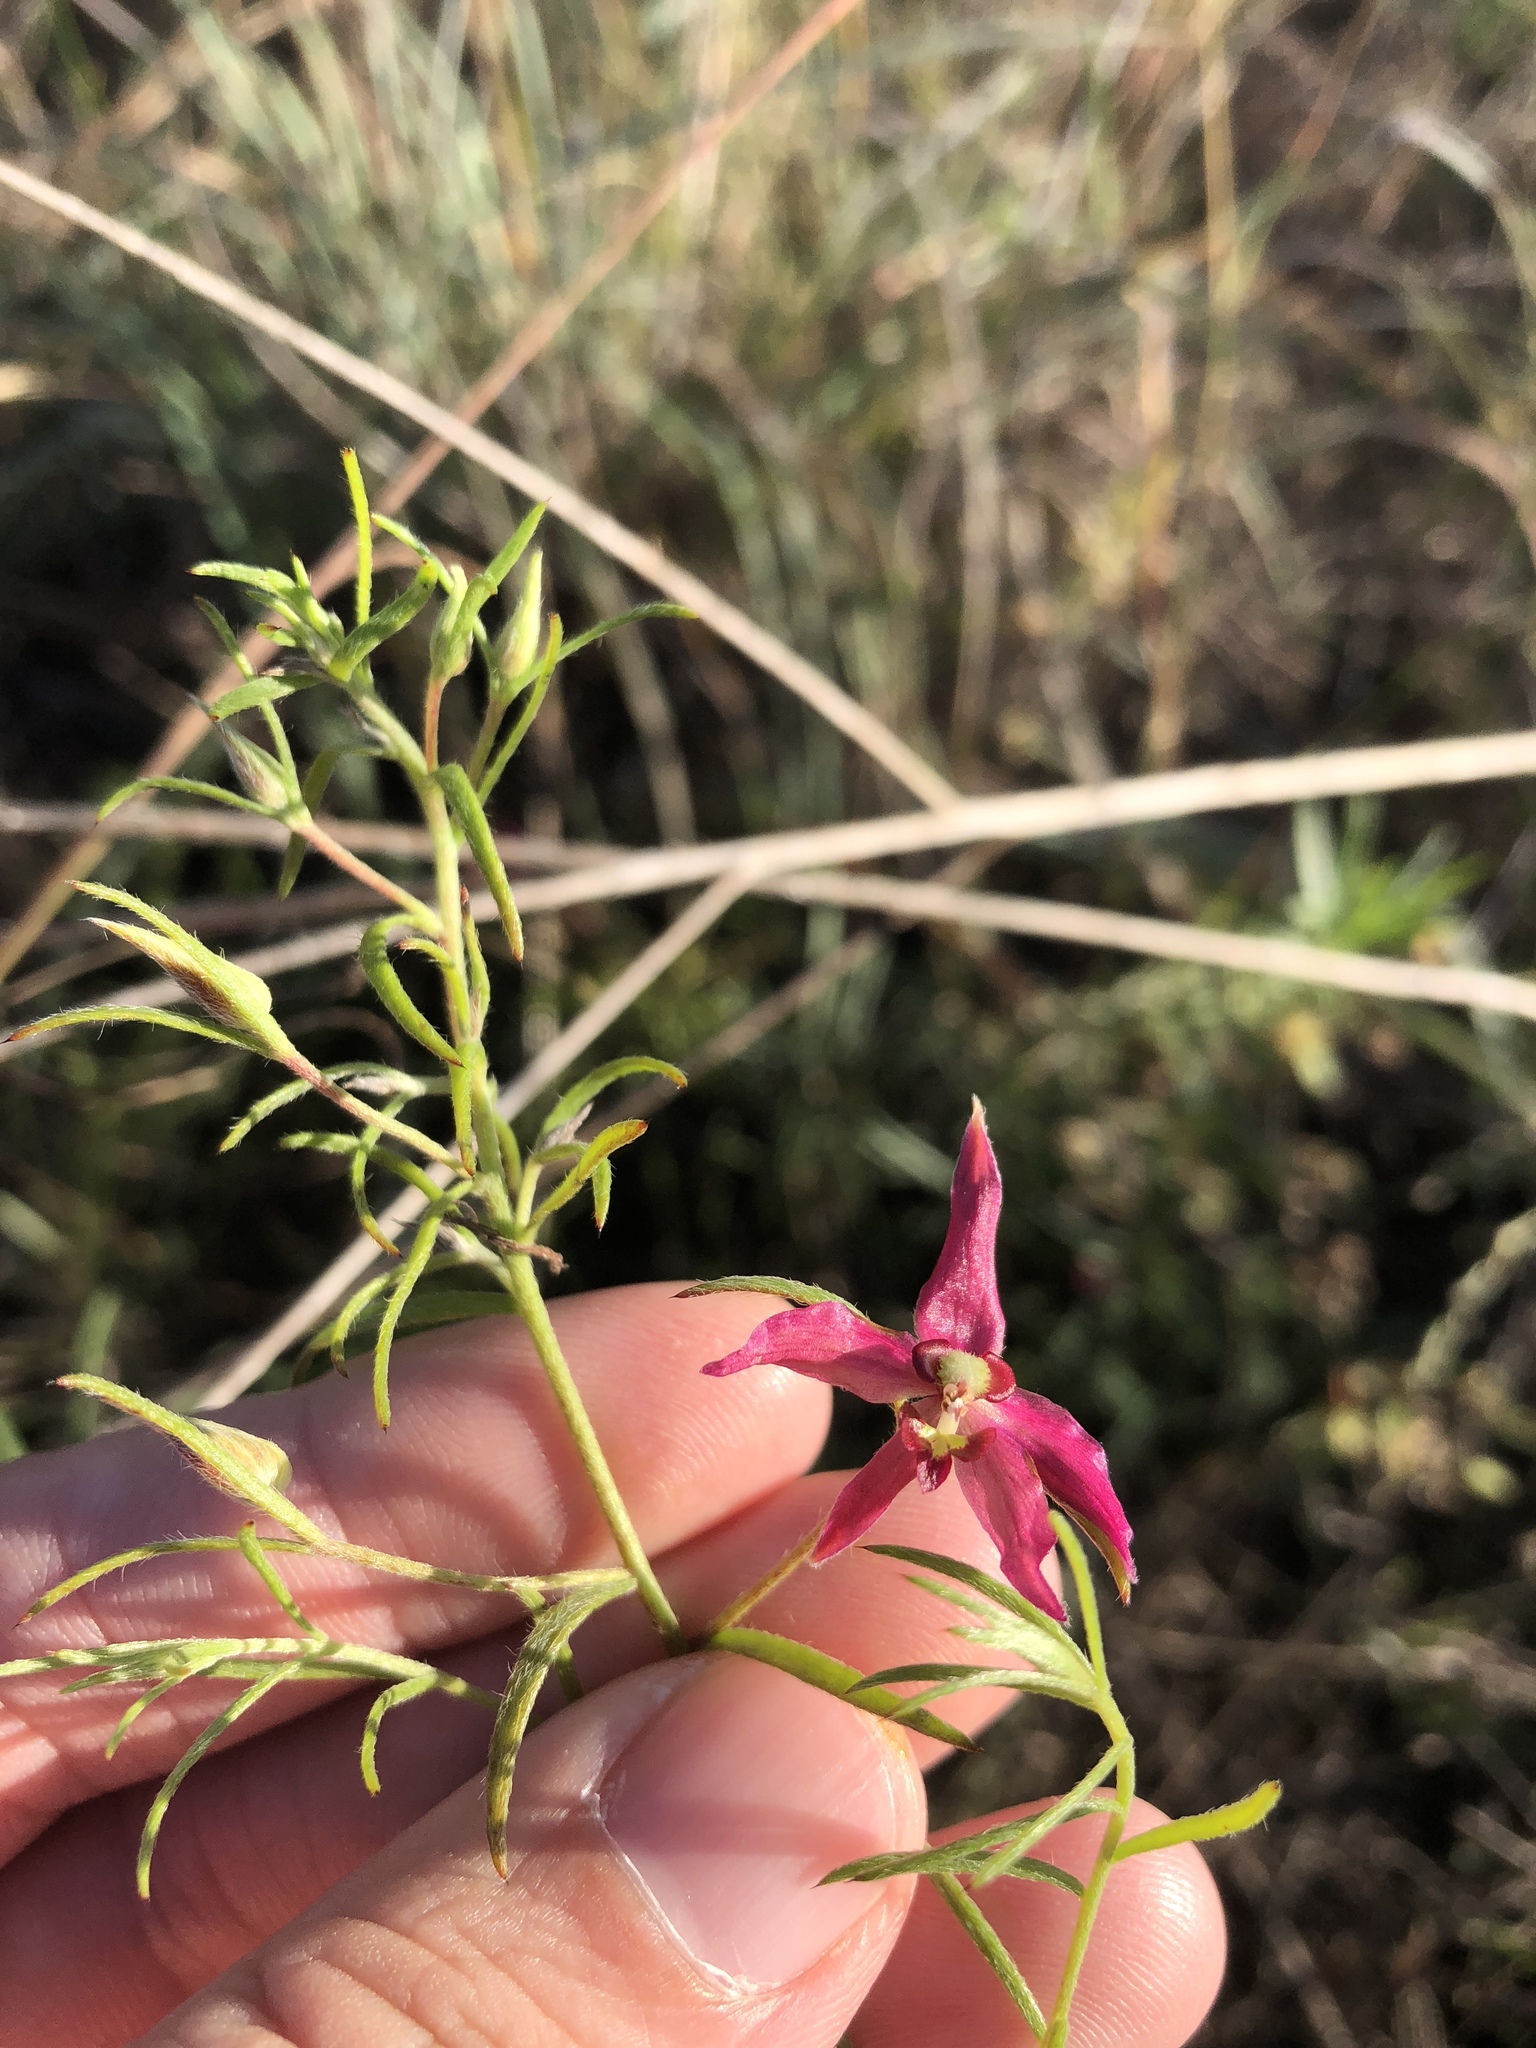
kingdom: Plantae
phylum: Tracheophyta
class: Magnoliopsida
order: Zygophyllales
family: Krameriaceae
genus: Krameria
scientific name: Krameria lanceolata
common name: Ratany
